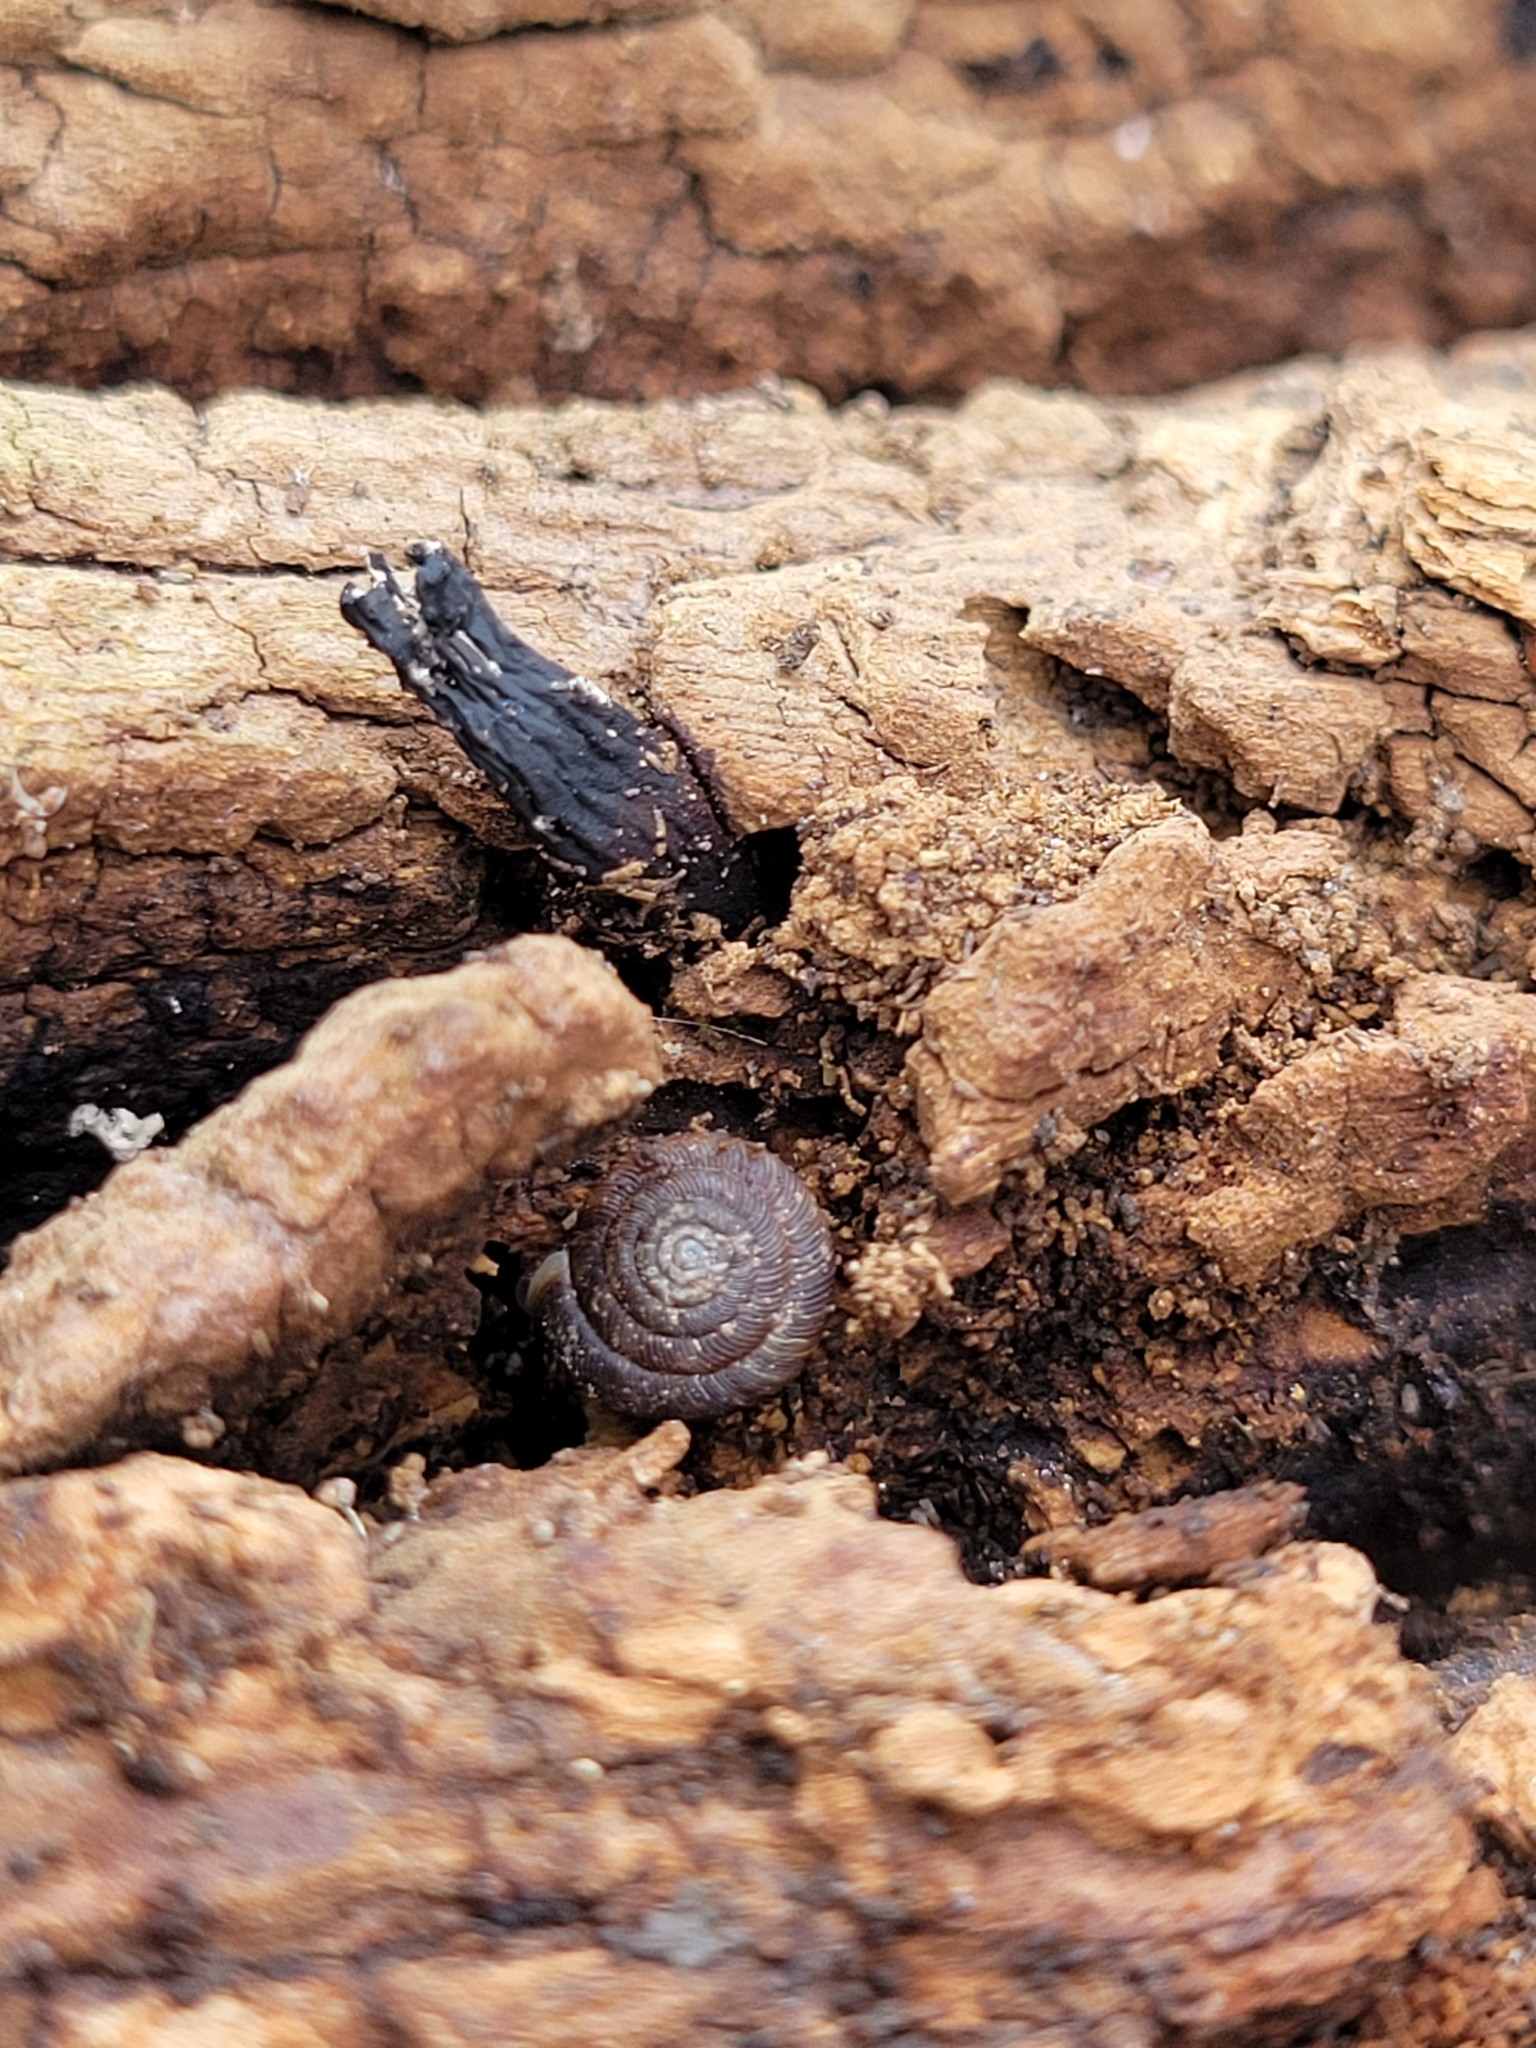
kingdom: Animalia
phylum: Mollusca
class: Gastropoda
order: Stylommatophora
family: Discidae
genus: Discus
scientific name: Discus rotundatus
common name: Rounded snail
